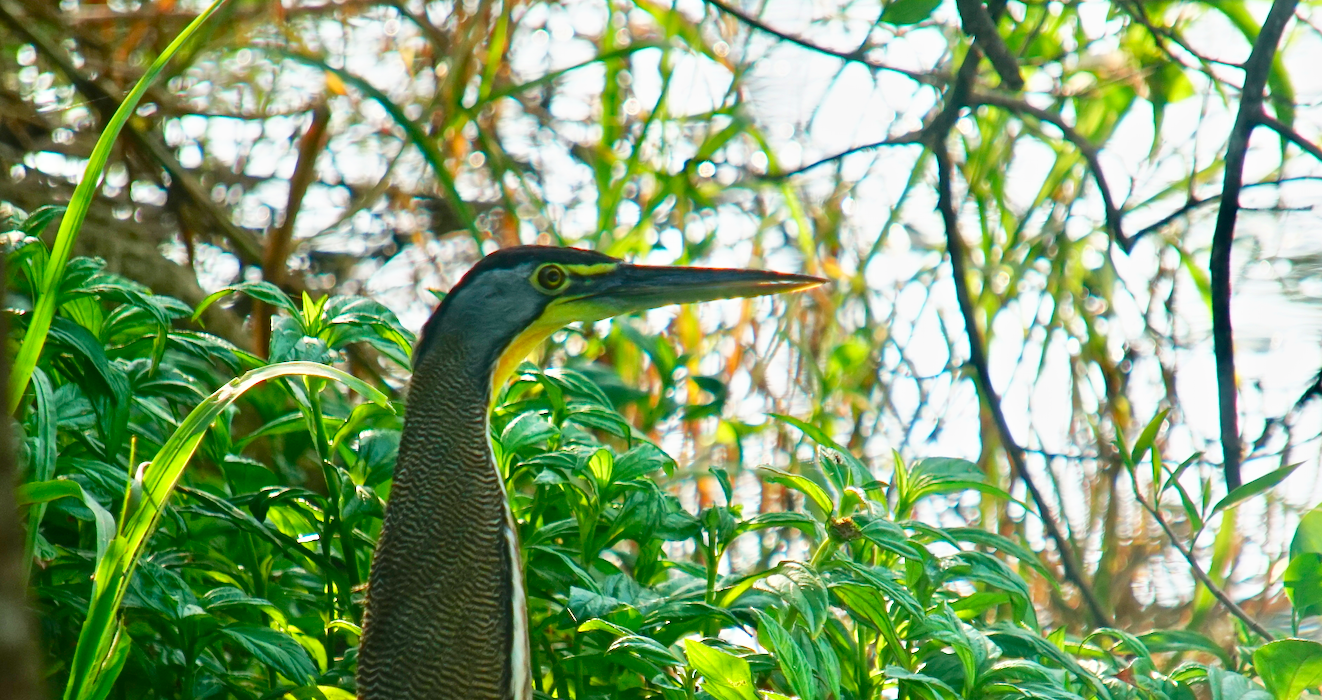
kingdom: Animalia
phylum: Chordata
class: Aves
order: Pelecaniformes
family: Ardeidae
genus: Tigrisoma
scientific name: Tigrisoma mexicanum
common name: Bare-throated tiger-heron
